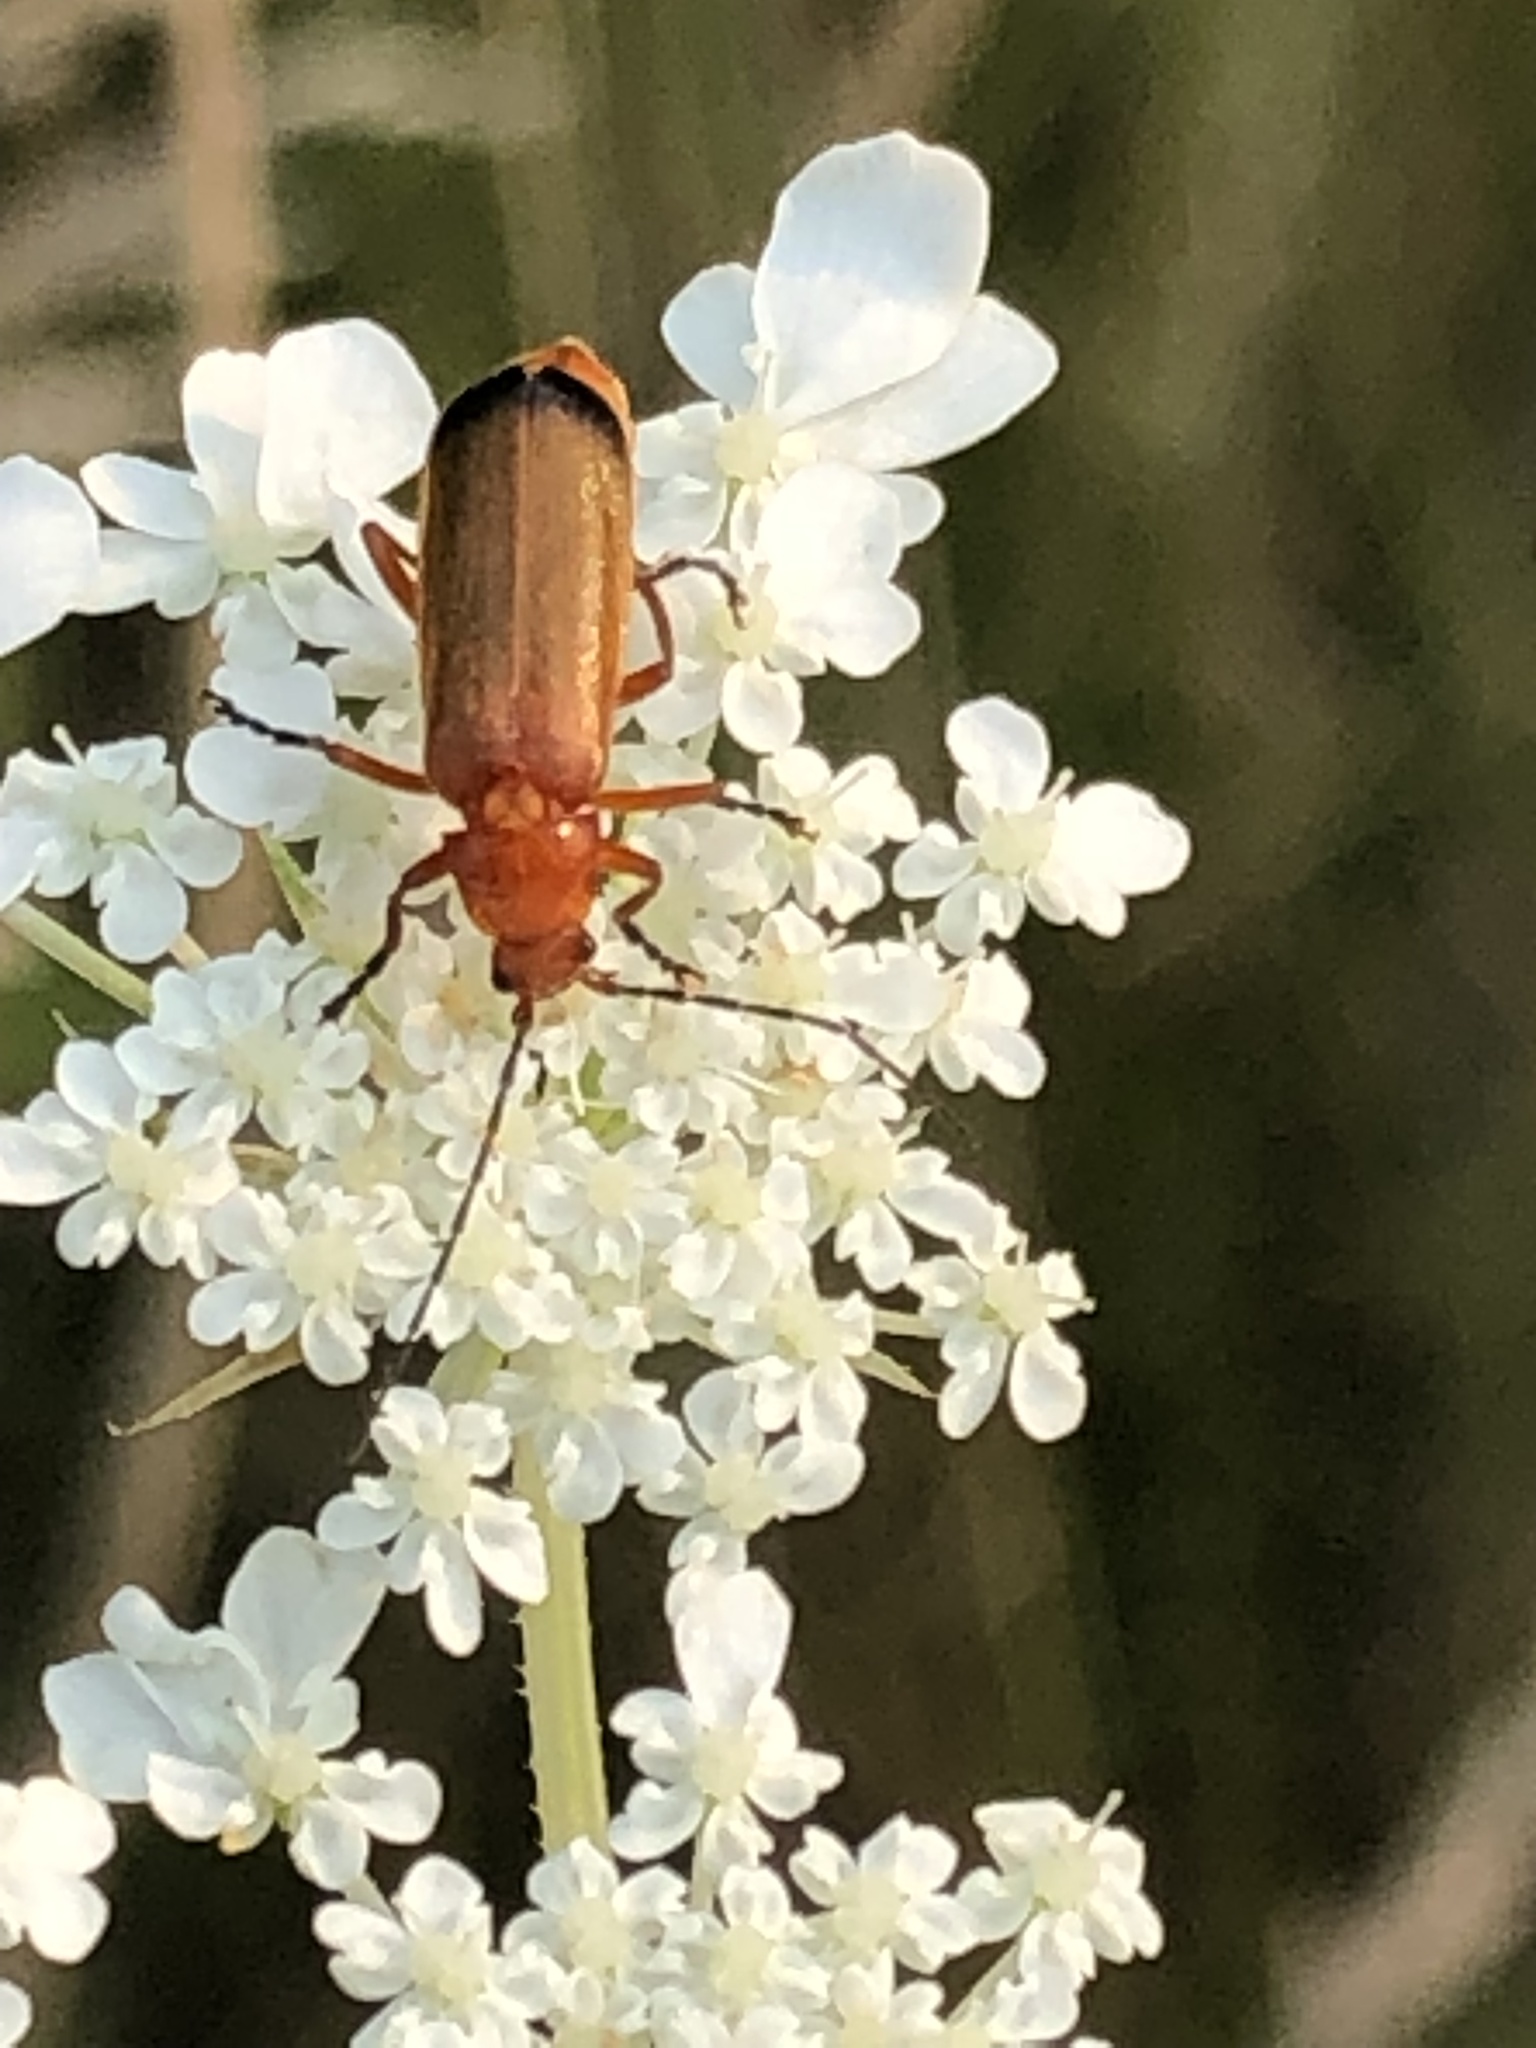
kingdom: Animalia
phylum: Arthropoda
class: Insecta
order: Coleoptera
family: Cantharidae
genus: Rhagonycha
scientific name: Rhagonycha fulva
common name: Common red soldier beetle
